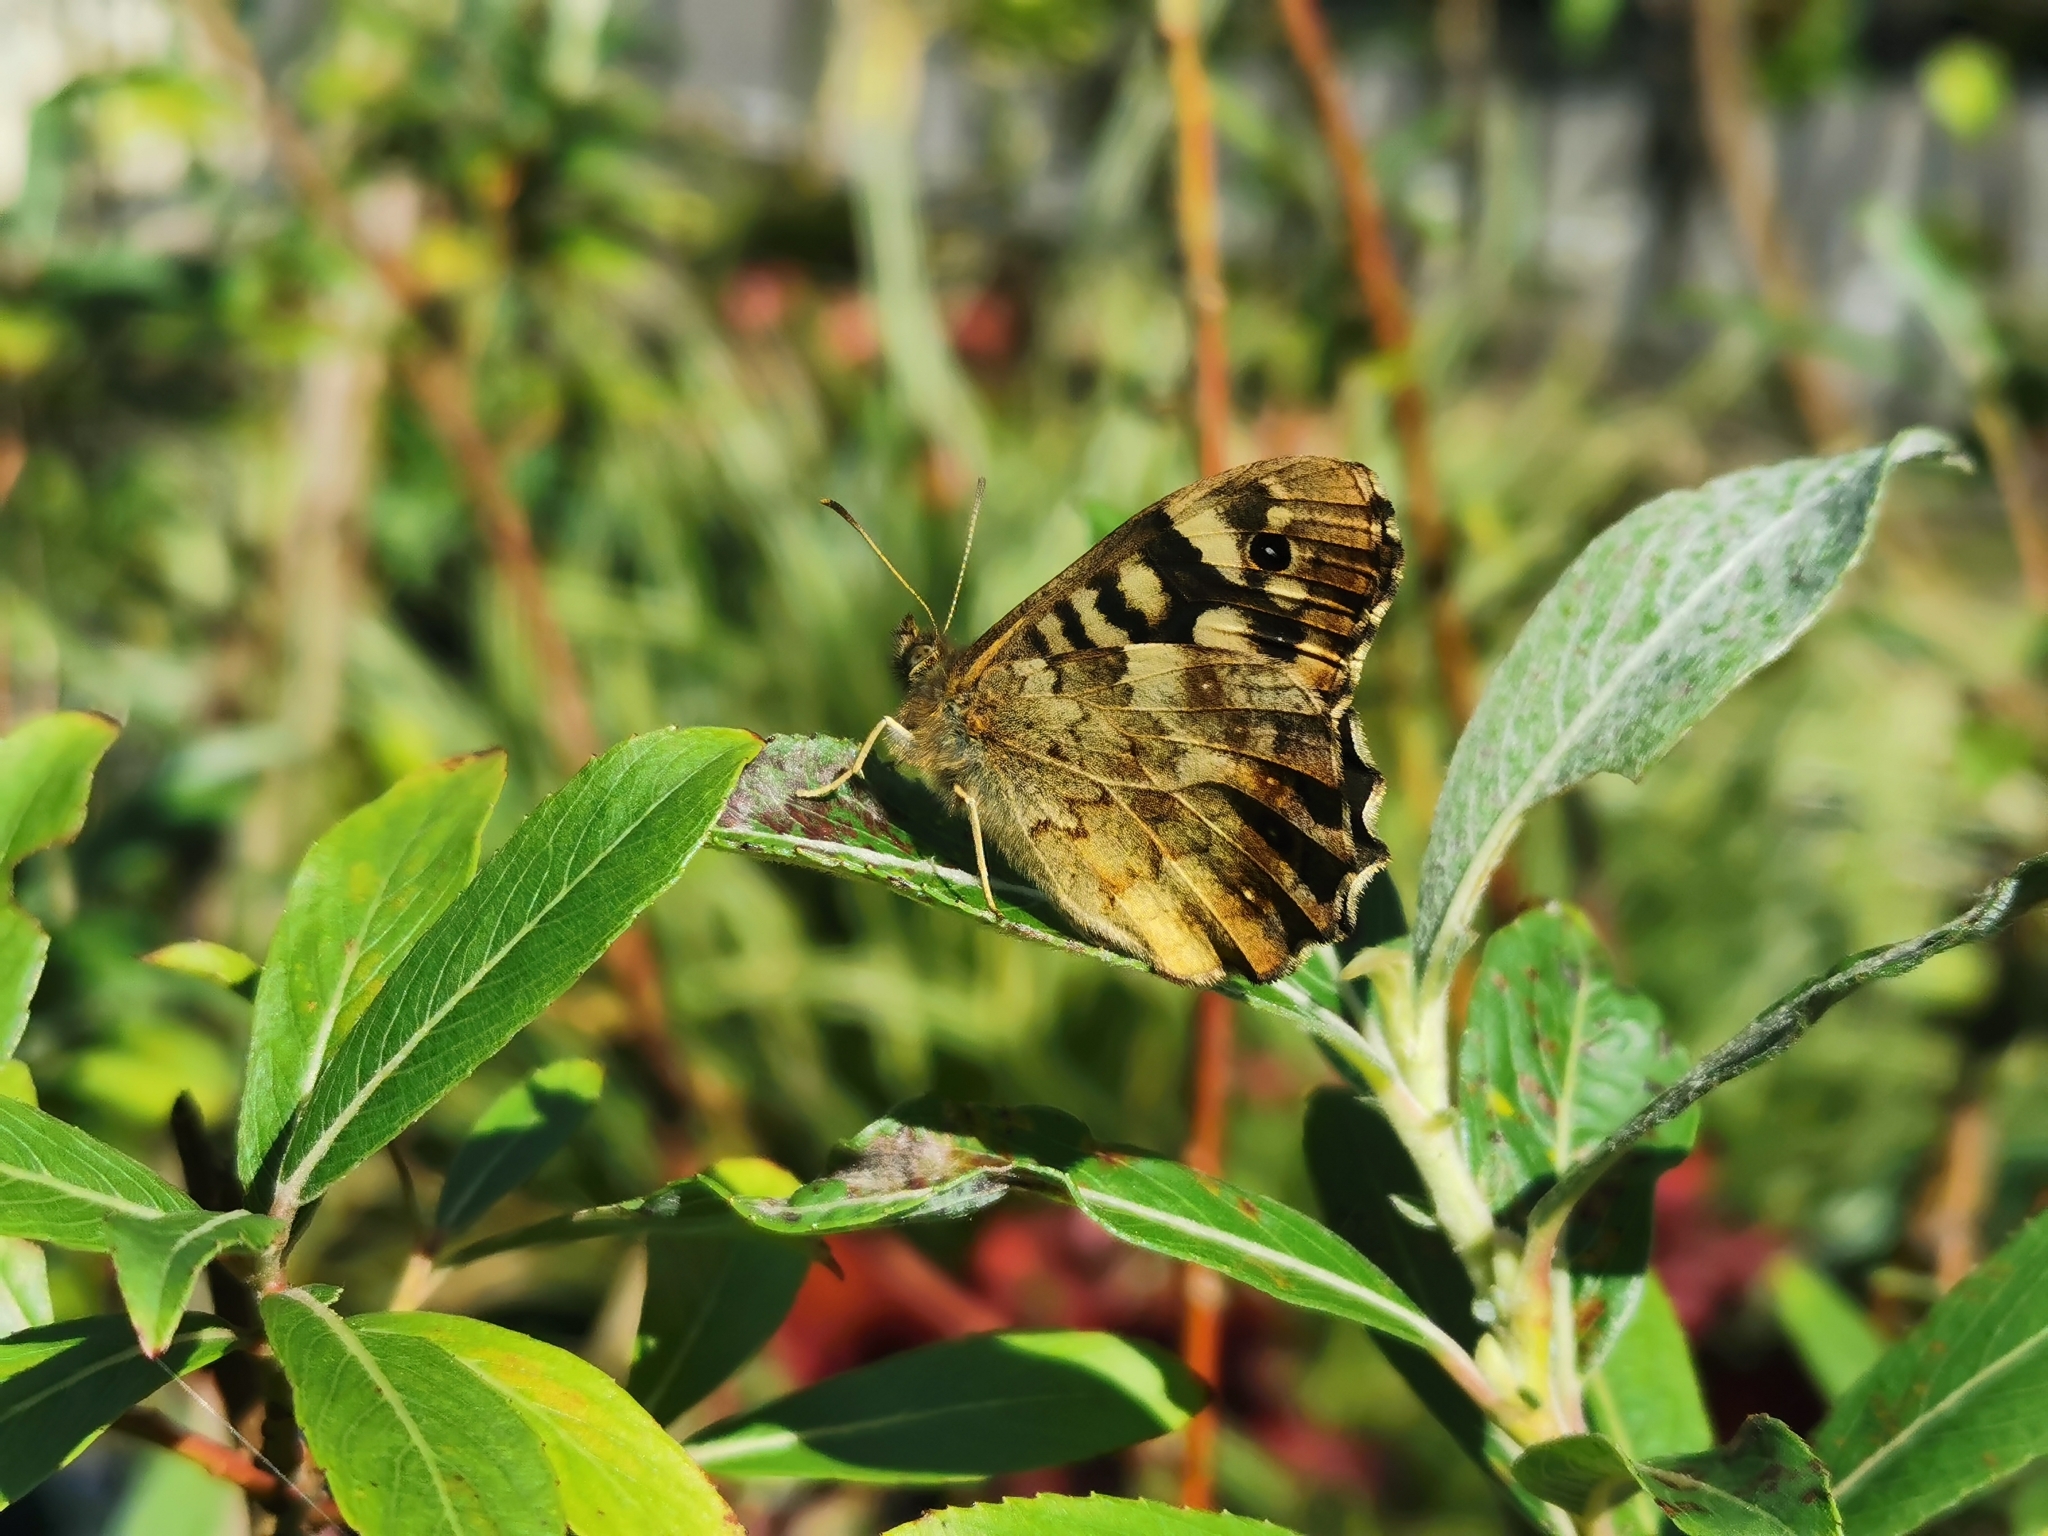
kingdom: Animalia
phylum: Arthropoda
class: Insecta
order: Lepidoptera
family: Nymphalidae
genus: Pararge
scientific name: Pararge aegeria
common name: Speckled wood
